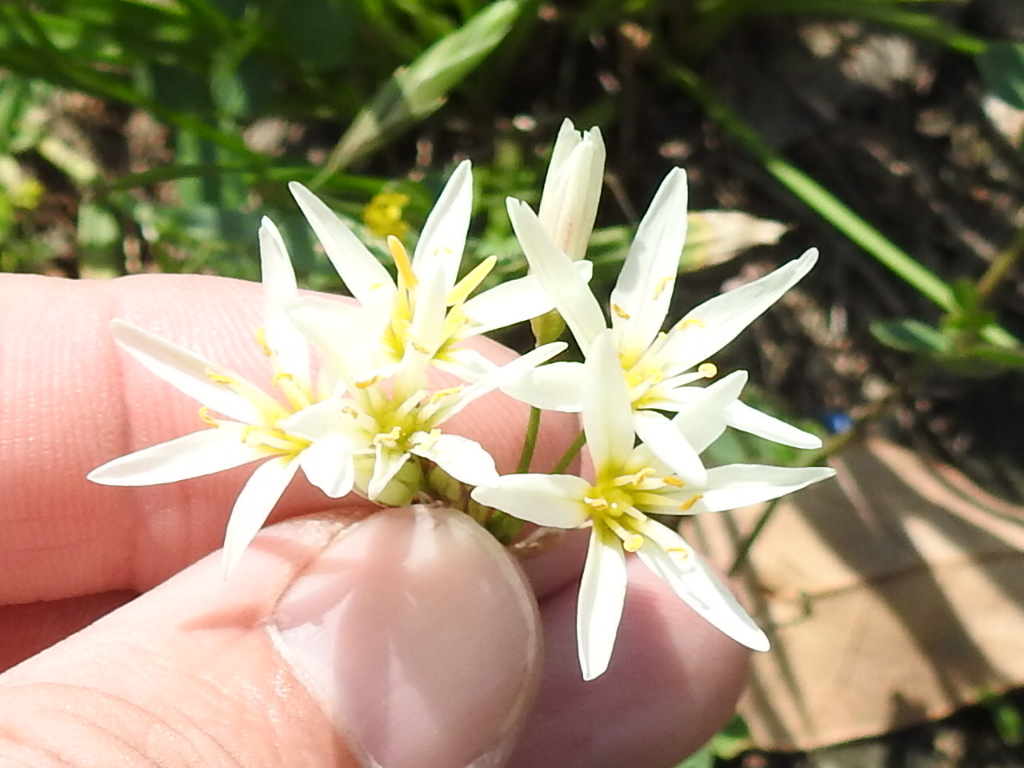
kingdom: Plantae
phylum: Tracheophyta
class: Liliopsida
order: Asparagales
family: Amaryllidaceae
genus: Nothoscordum
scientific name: Nothoscordum bivalve
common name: Crow-poison
